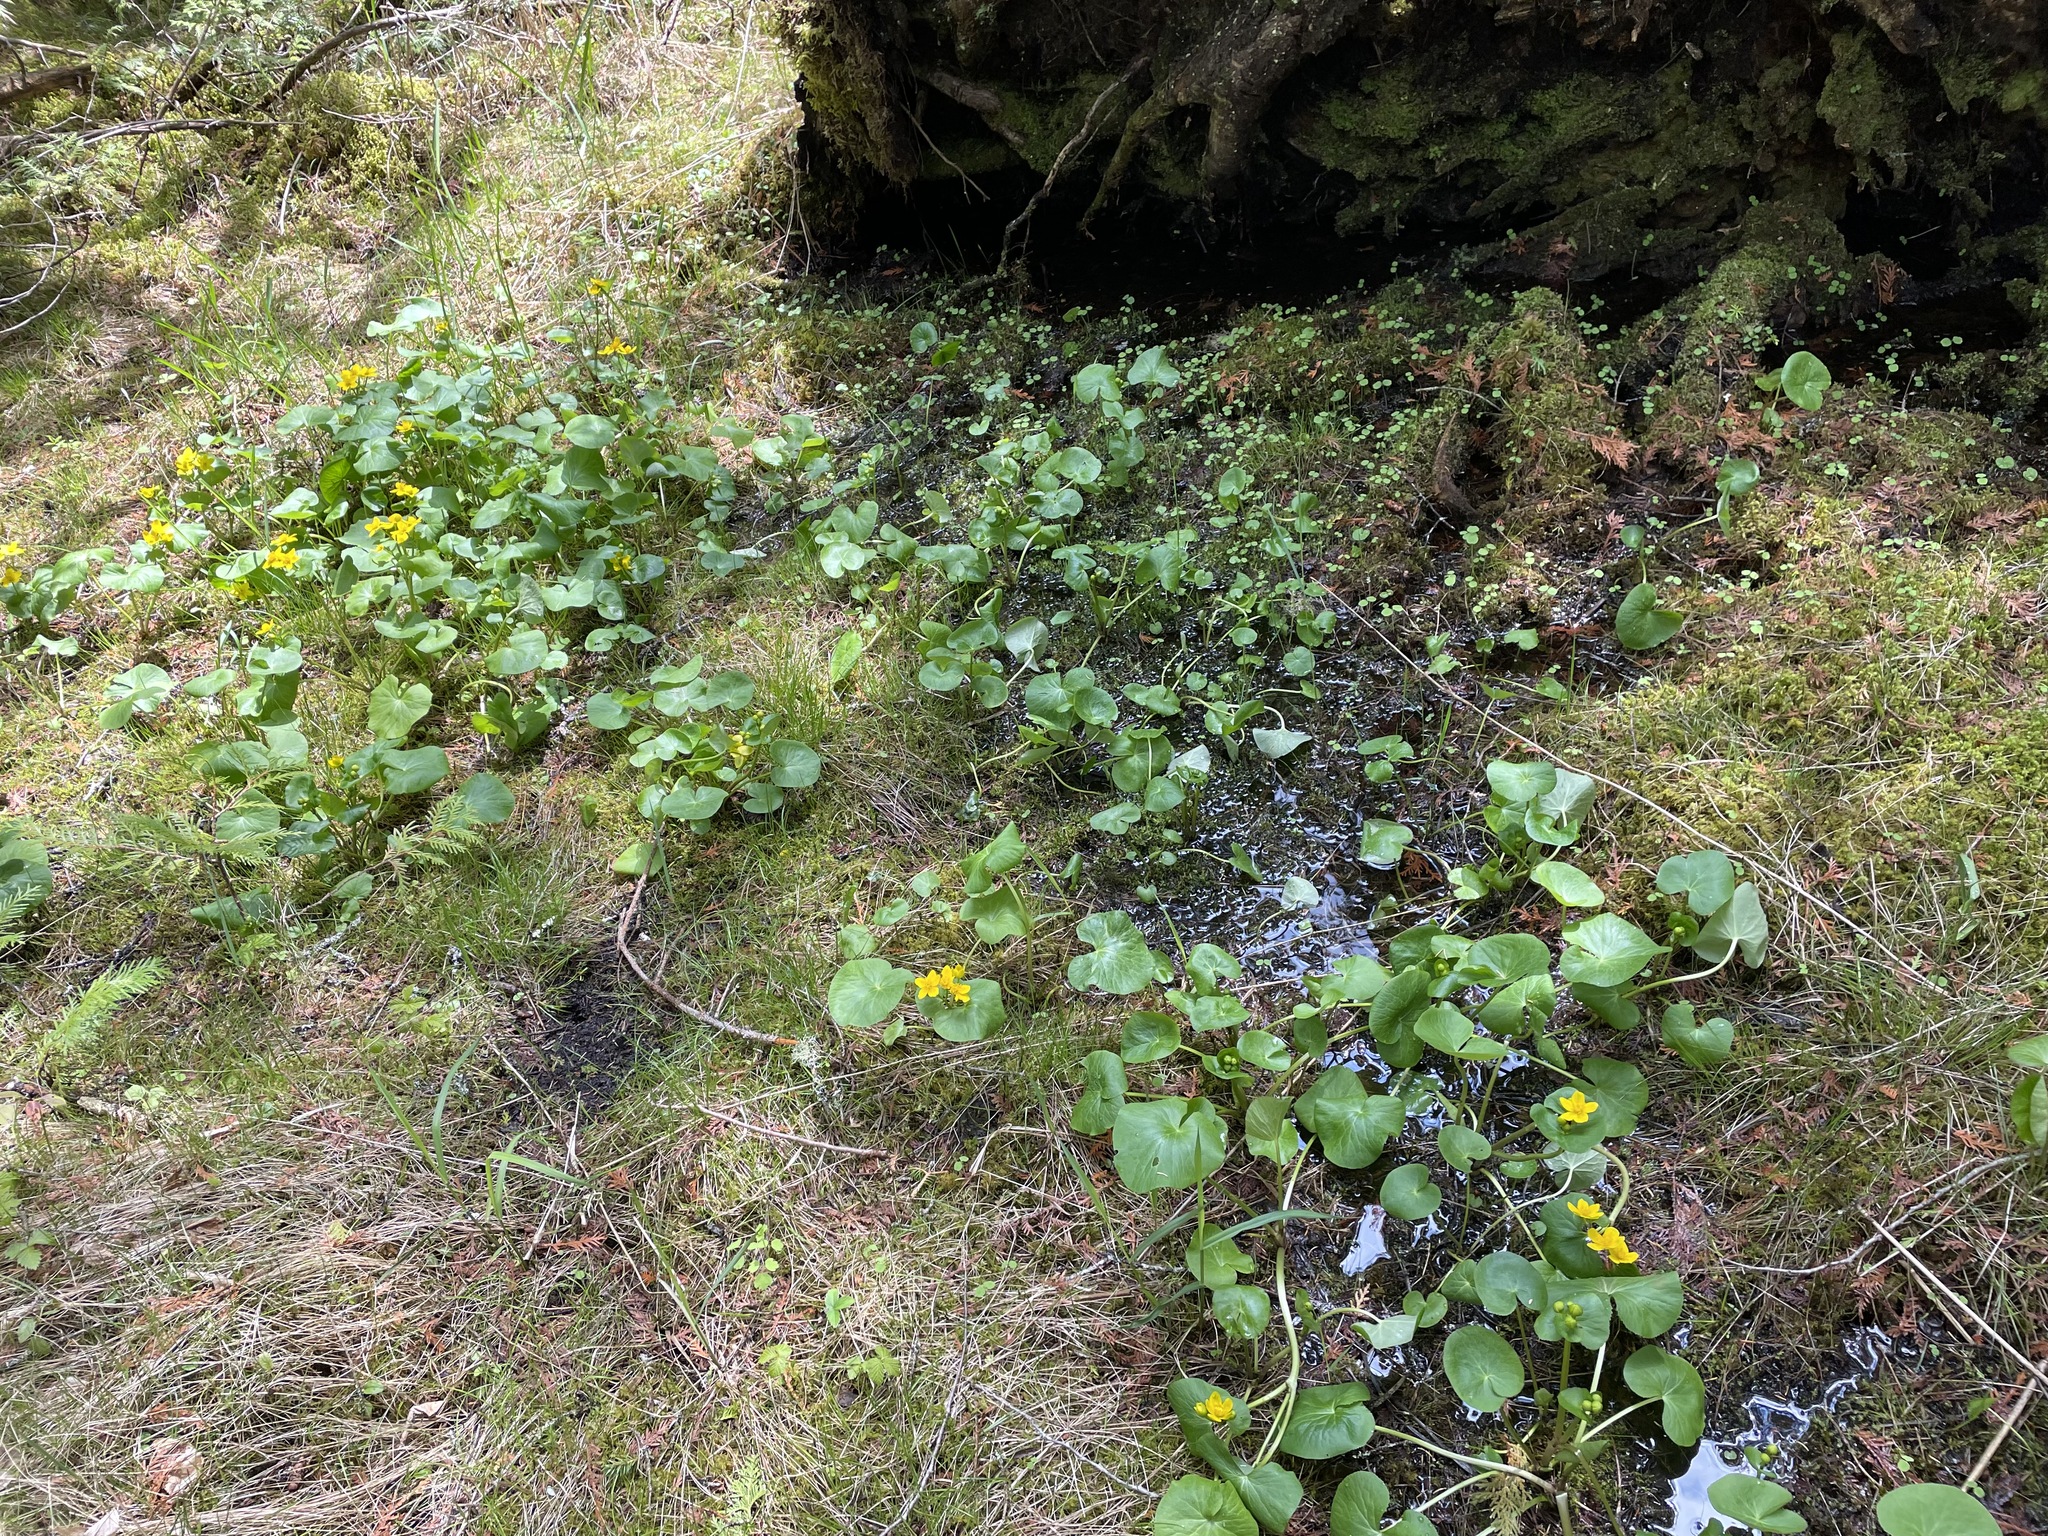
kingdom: Plantae
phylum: Tracheophyta
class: Magnoliopsida
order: Ranunculales
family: Ranunculaceae
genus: Caltha
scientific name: Caltha palustris
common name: Marsh marigold
